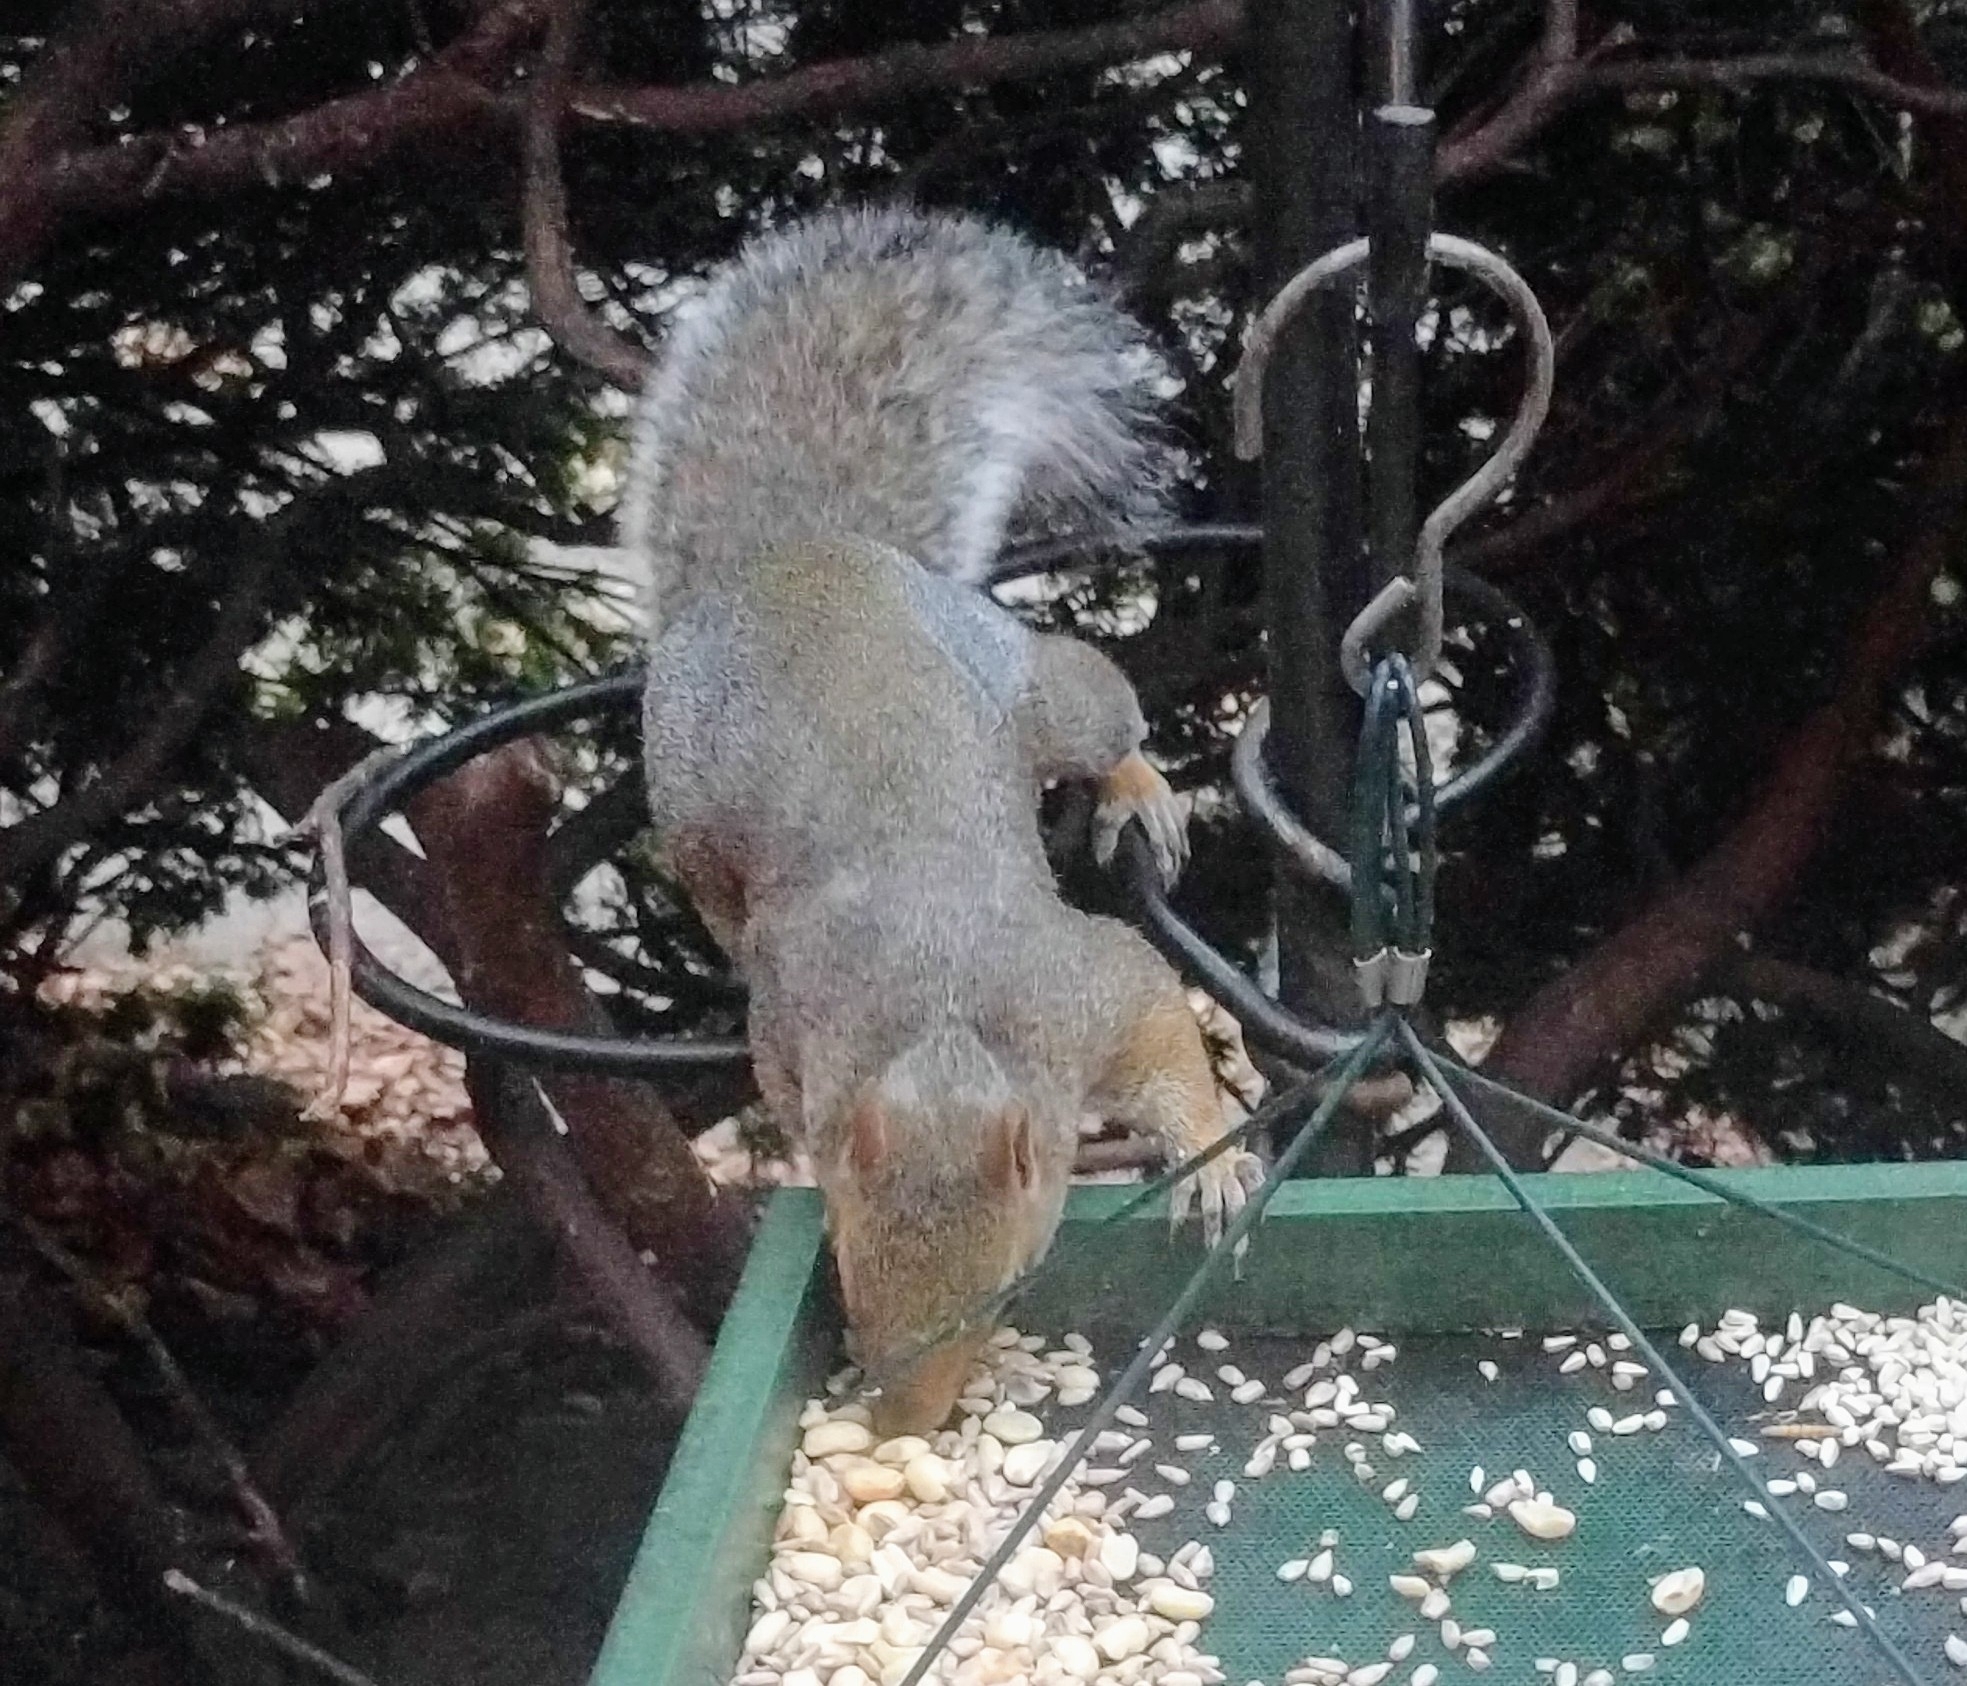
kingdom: Animalia
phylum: Chordata
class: Mammalia
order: Rodentia
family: Sciuridae
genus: Sciurus
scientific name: Sciurus carolinensis
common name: Eastern gray squirrel
